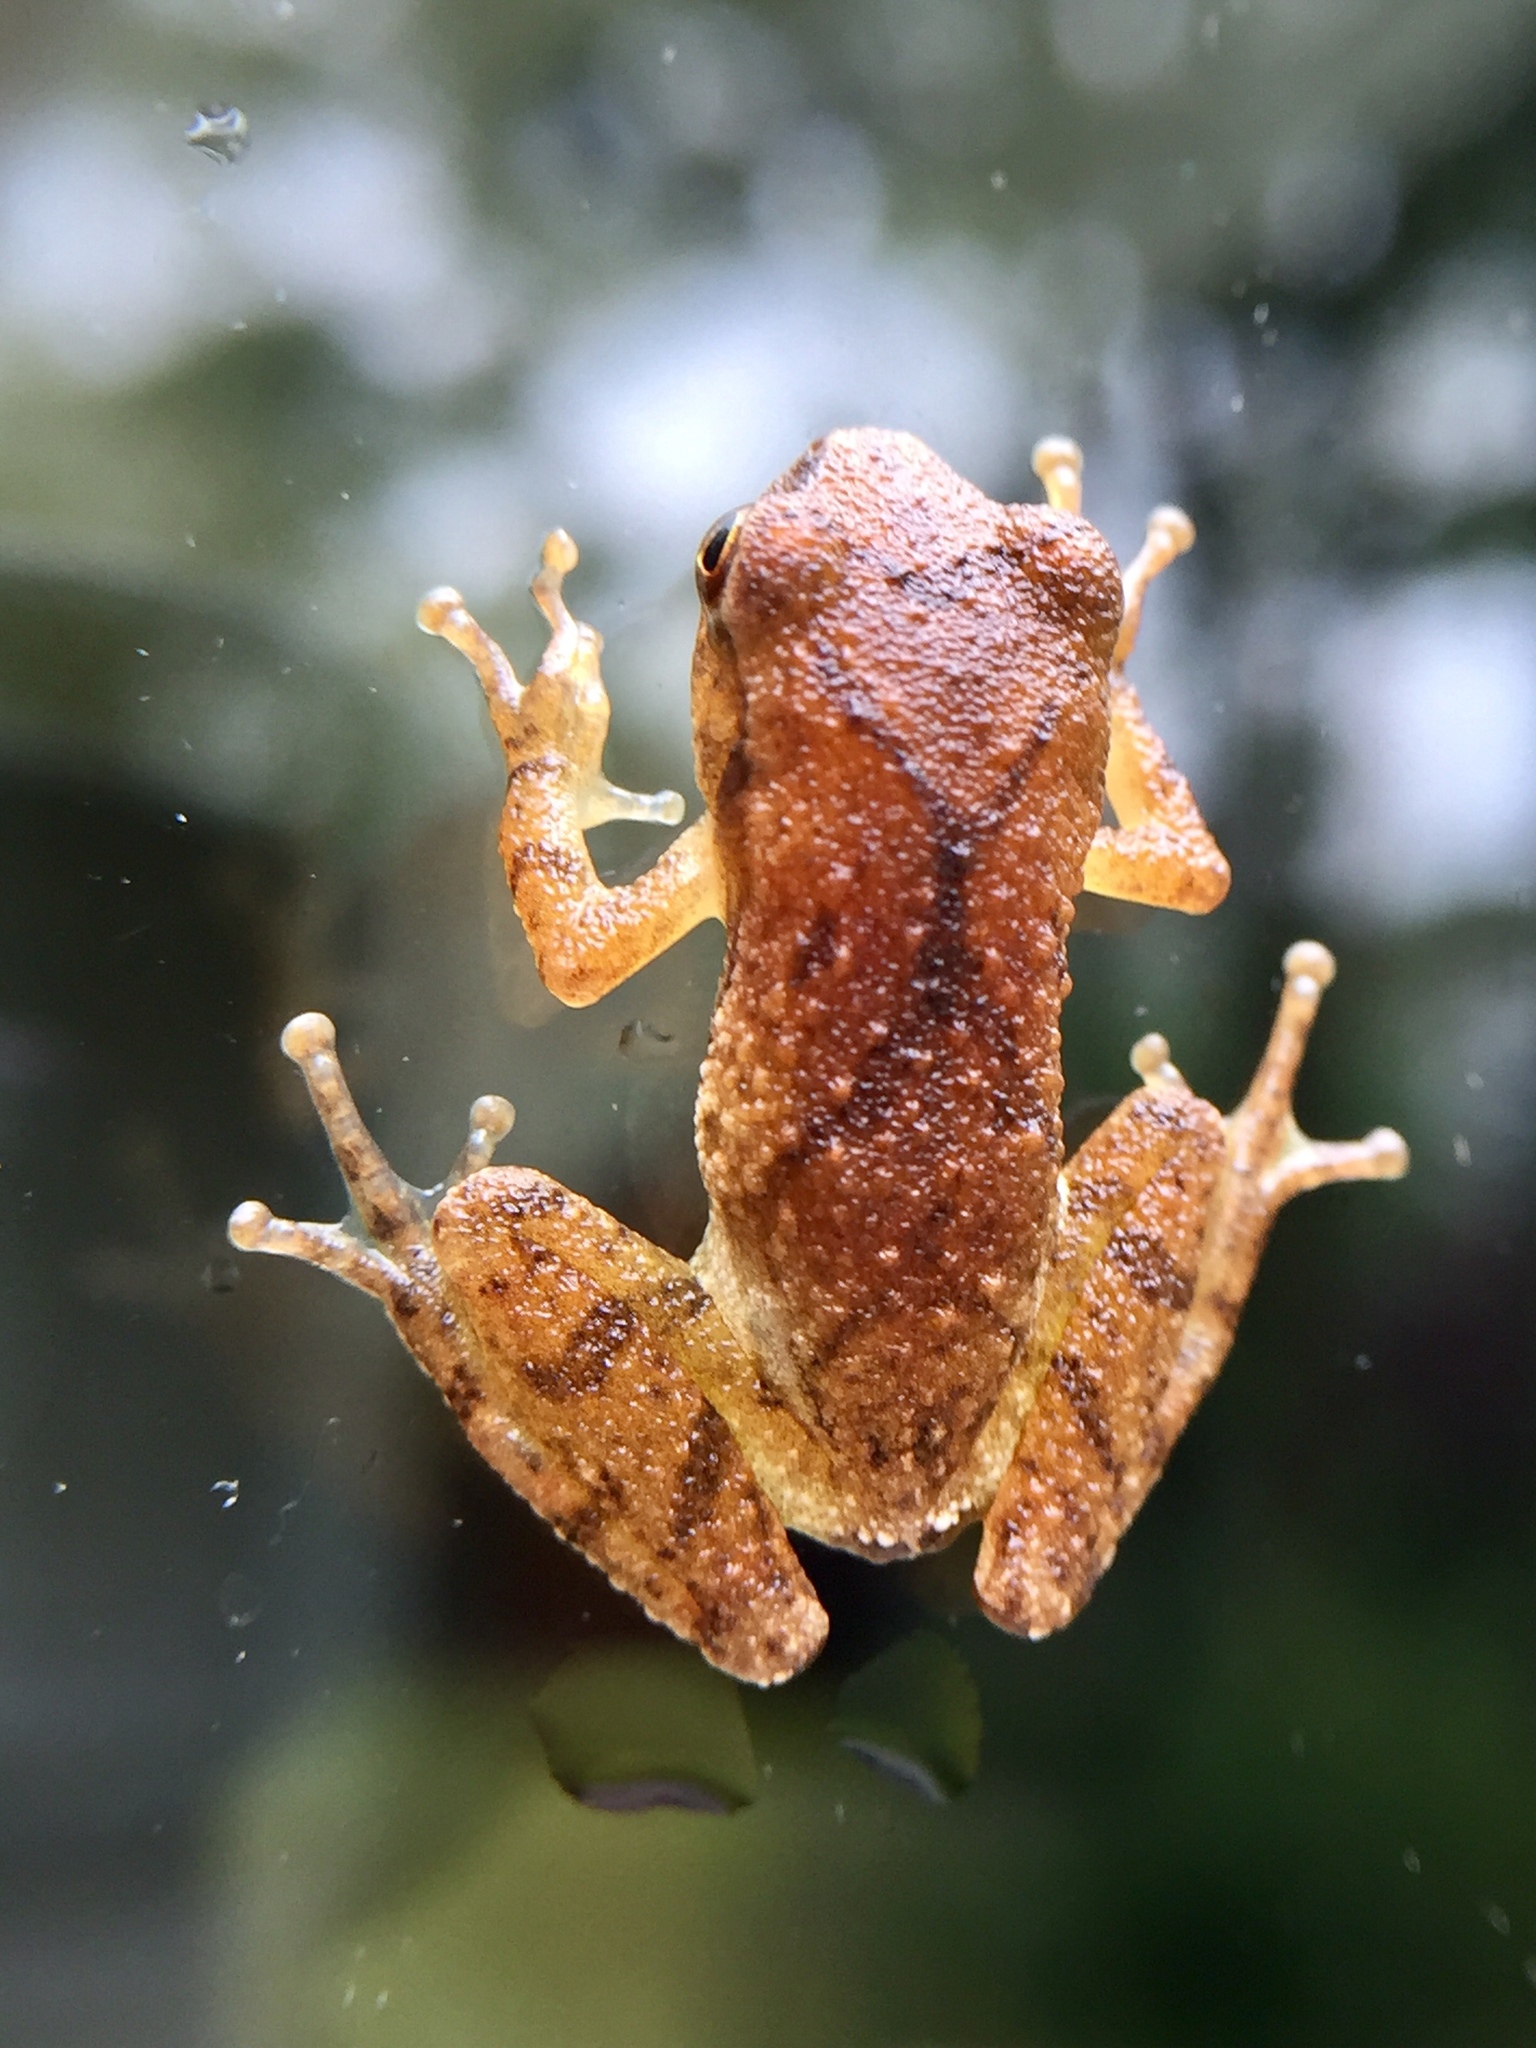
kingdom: Animalia
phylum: Chordata
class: Amphibia
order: Anura
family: Hylidae
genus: Pseudacris
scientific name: Pseudacris crucifer
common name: Spring peeper
